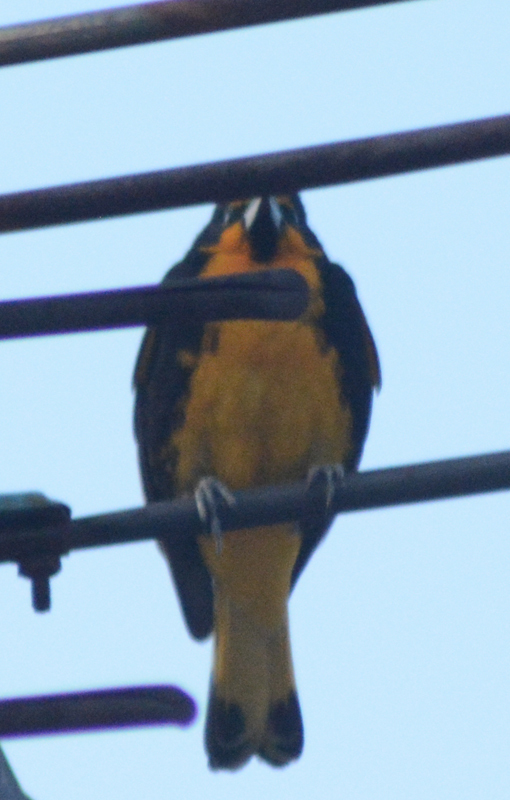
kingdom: Animalia
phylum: Chordata
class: Aves
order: Passeriformes
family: Icteridae
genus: Icterus
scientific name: Icterus abeillei
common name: Black-backed oriole
